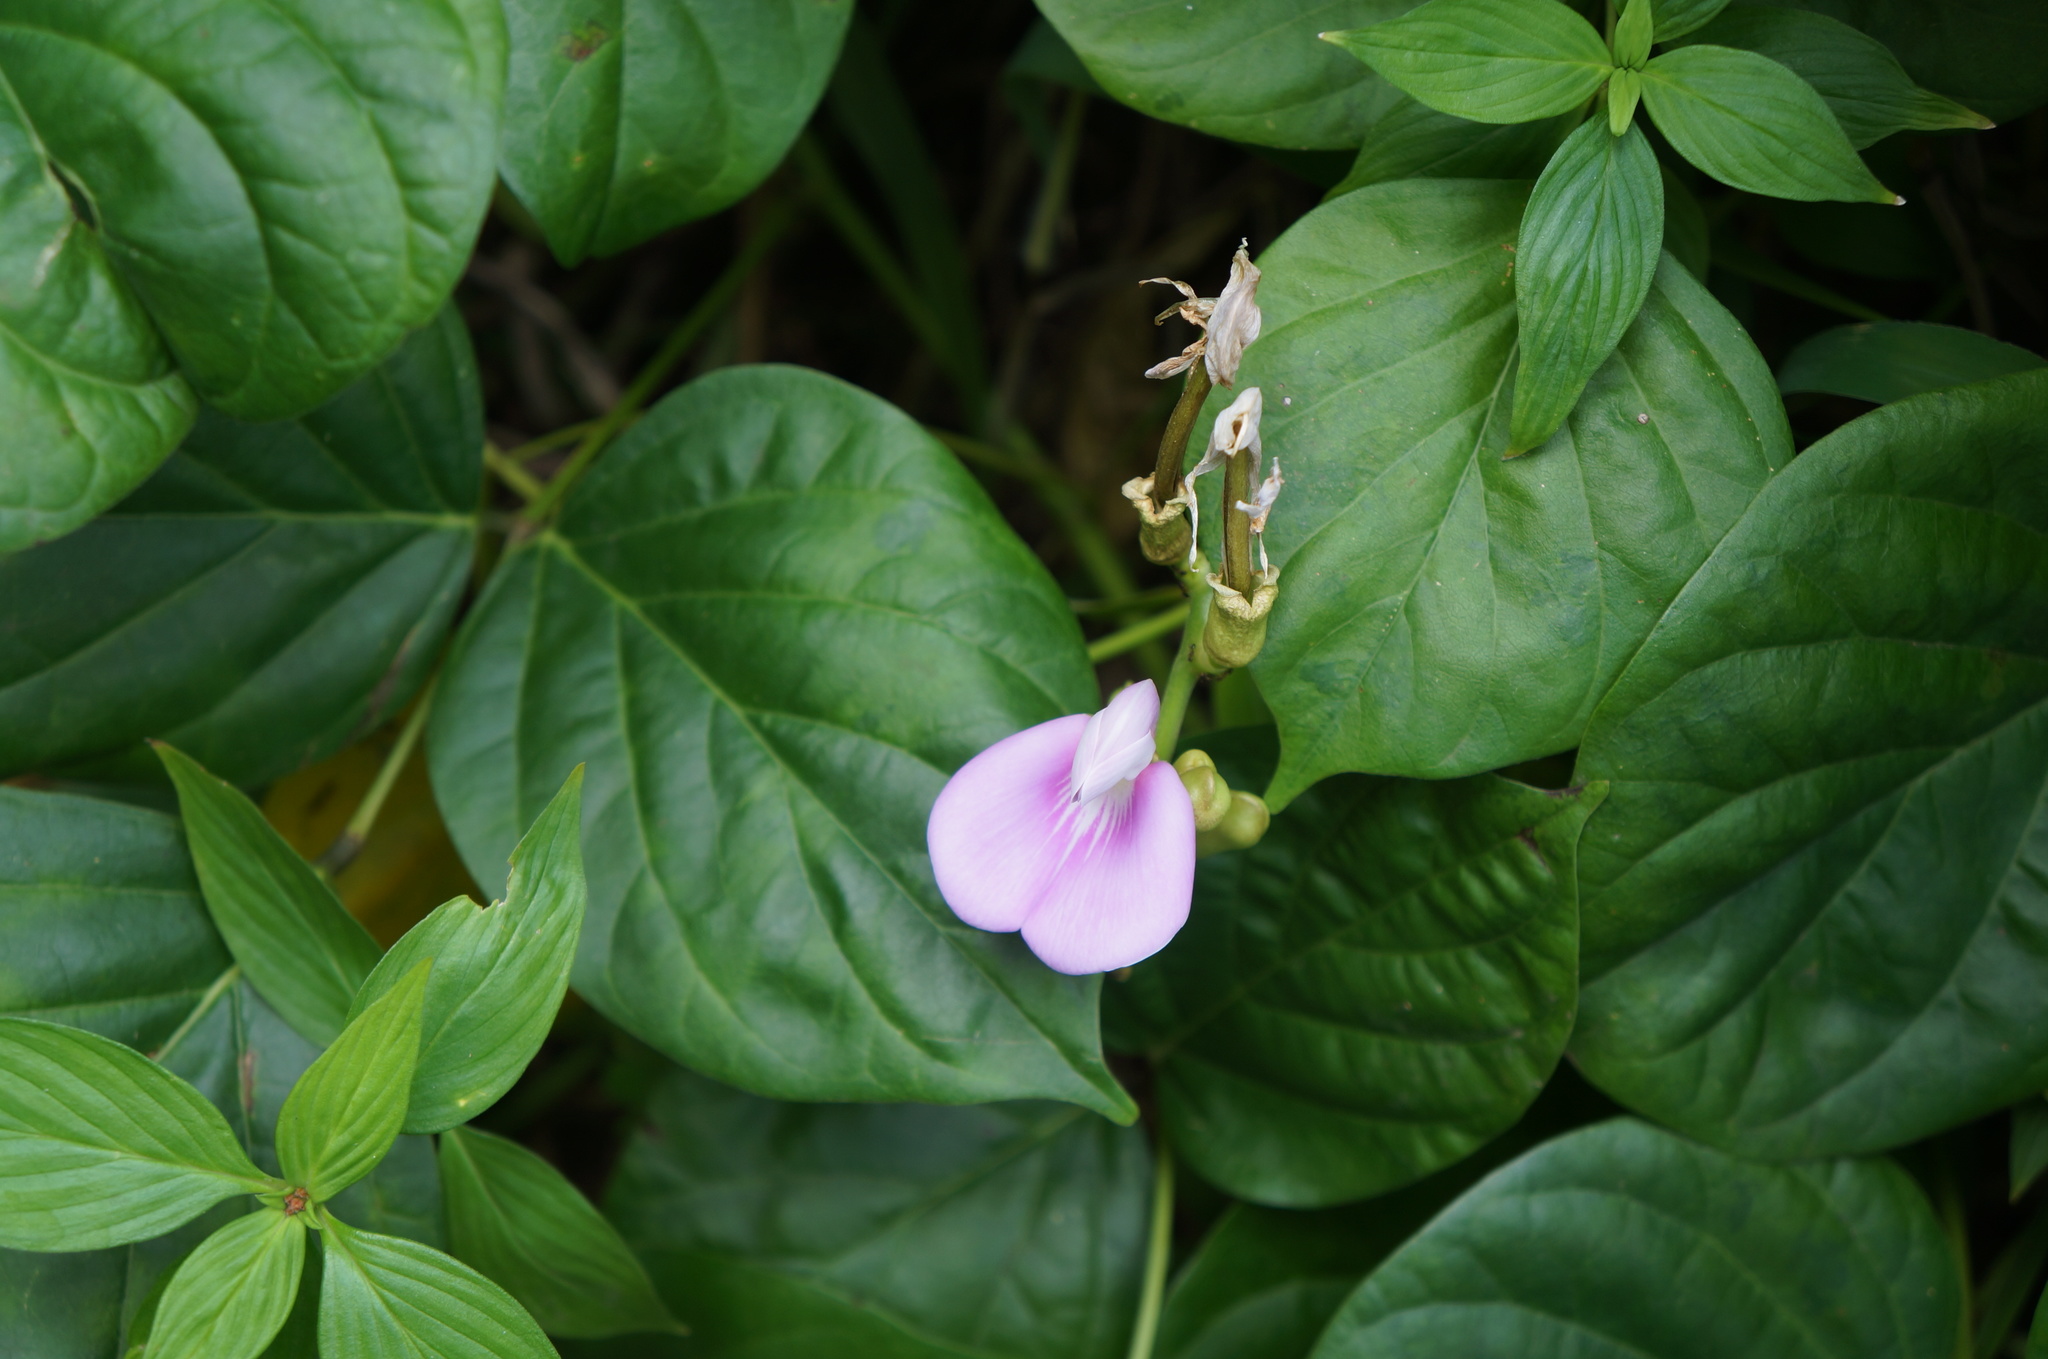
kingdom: Plantae
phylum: Tracheophyta
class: Magnoliopsida
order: Fabales
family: Fabaceae
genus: Canavalia
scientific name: Canavalia cathartica
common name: Maunaloa
